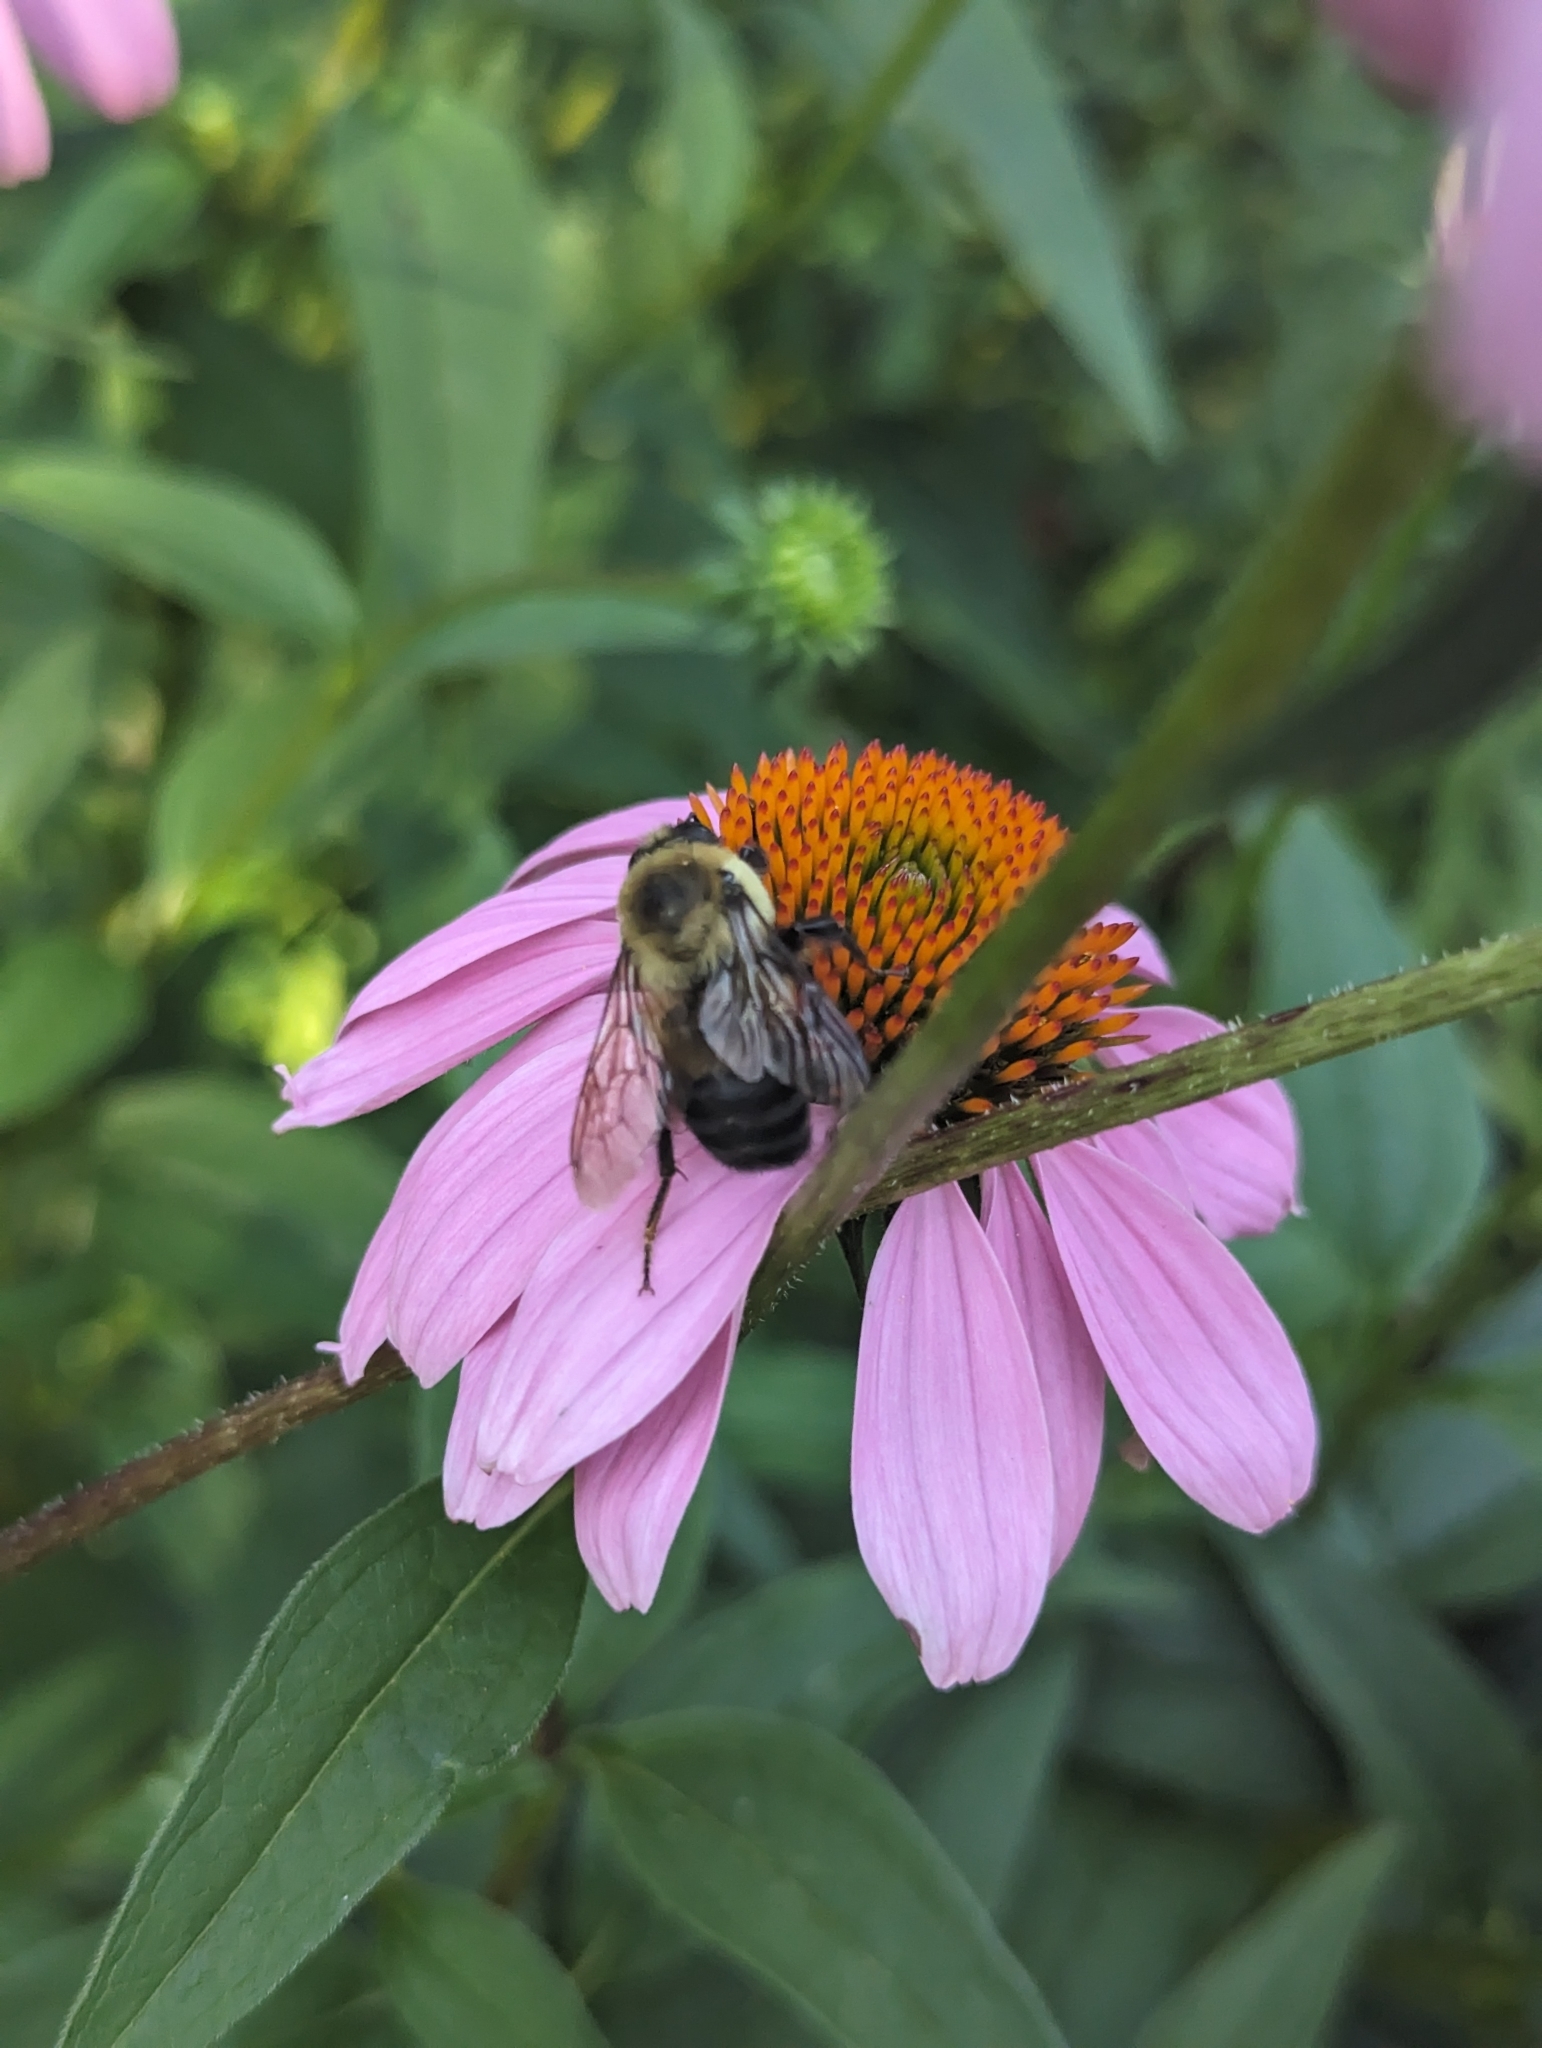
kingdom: Animalia
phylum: Arthropoda
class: Insecta
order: Hymenoptera
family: Apidae
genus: Bombus
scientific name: Bombus griseocollis
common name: Brown-belted bumble bee
